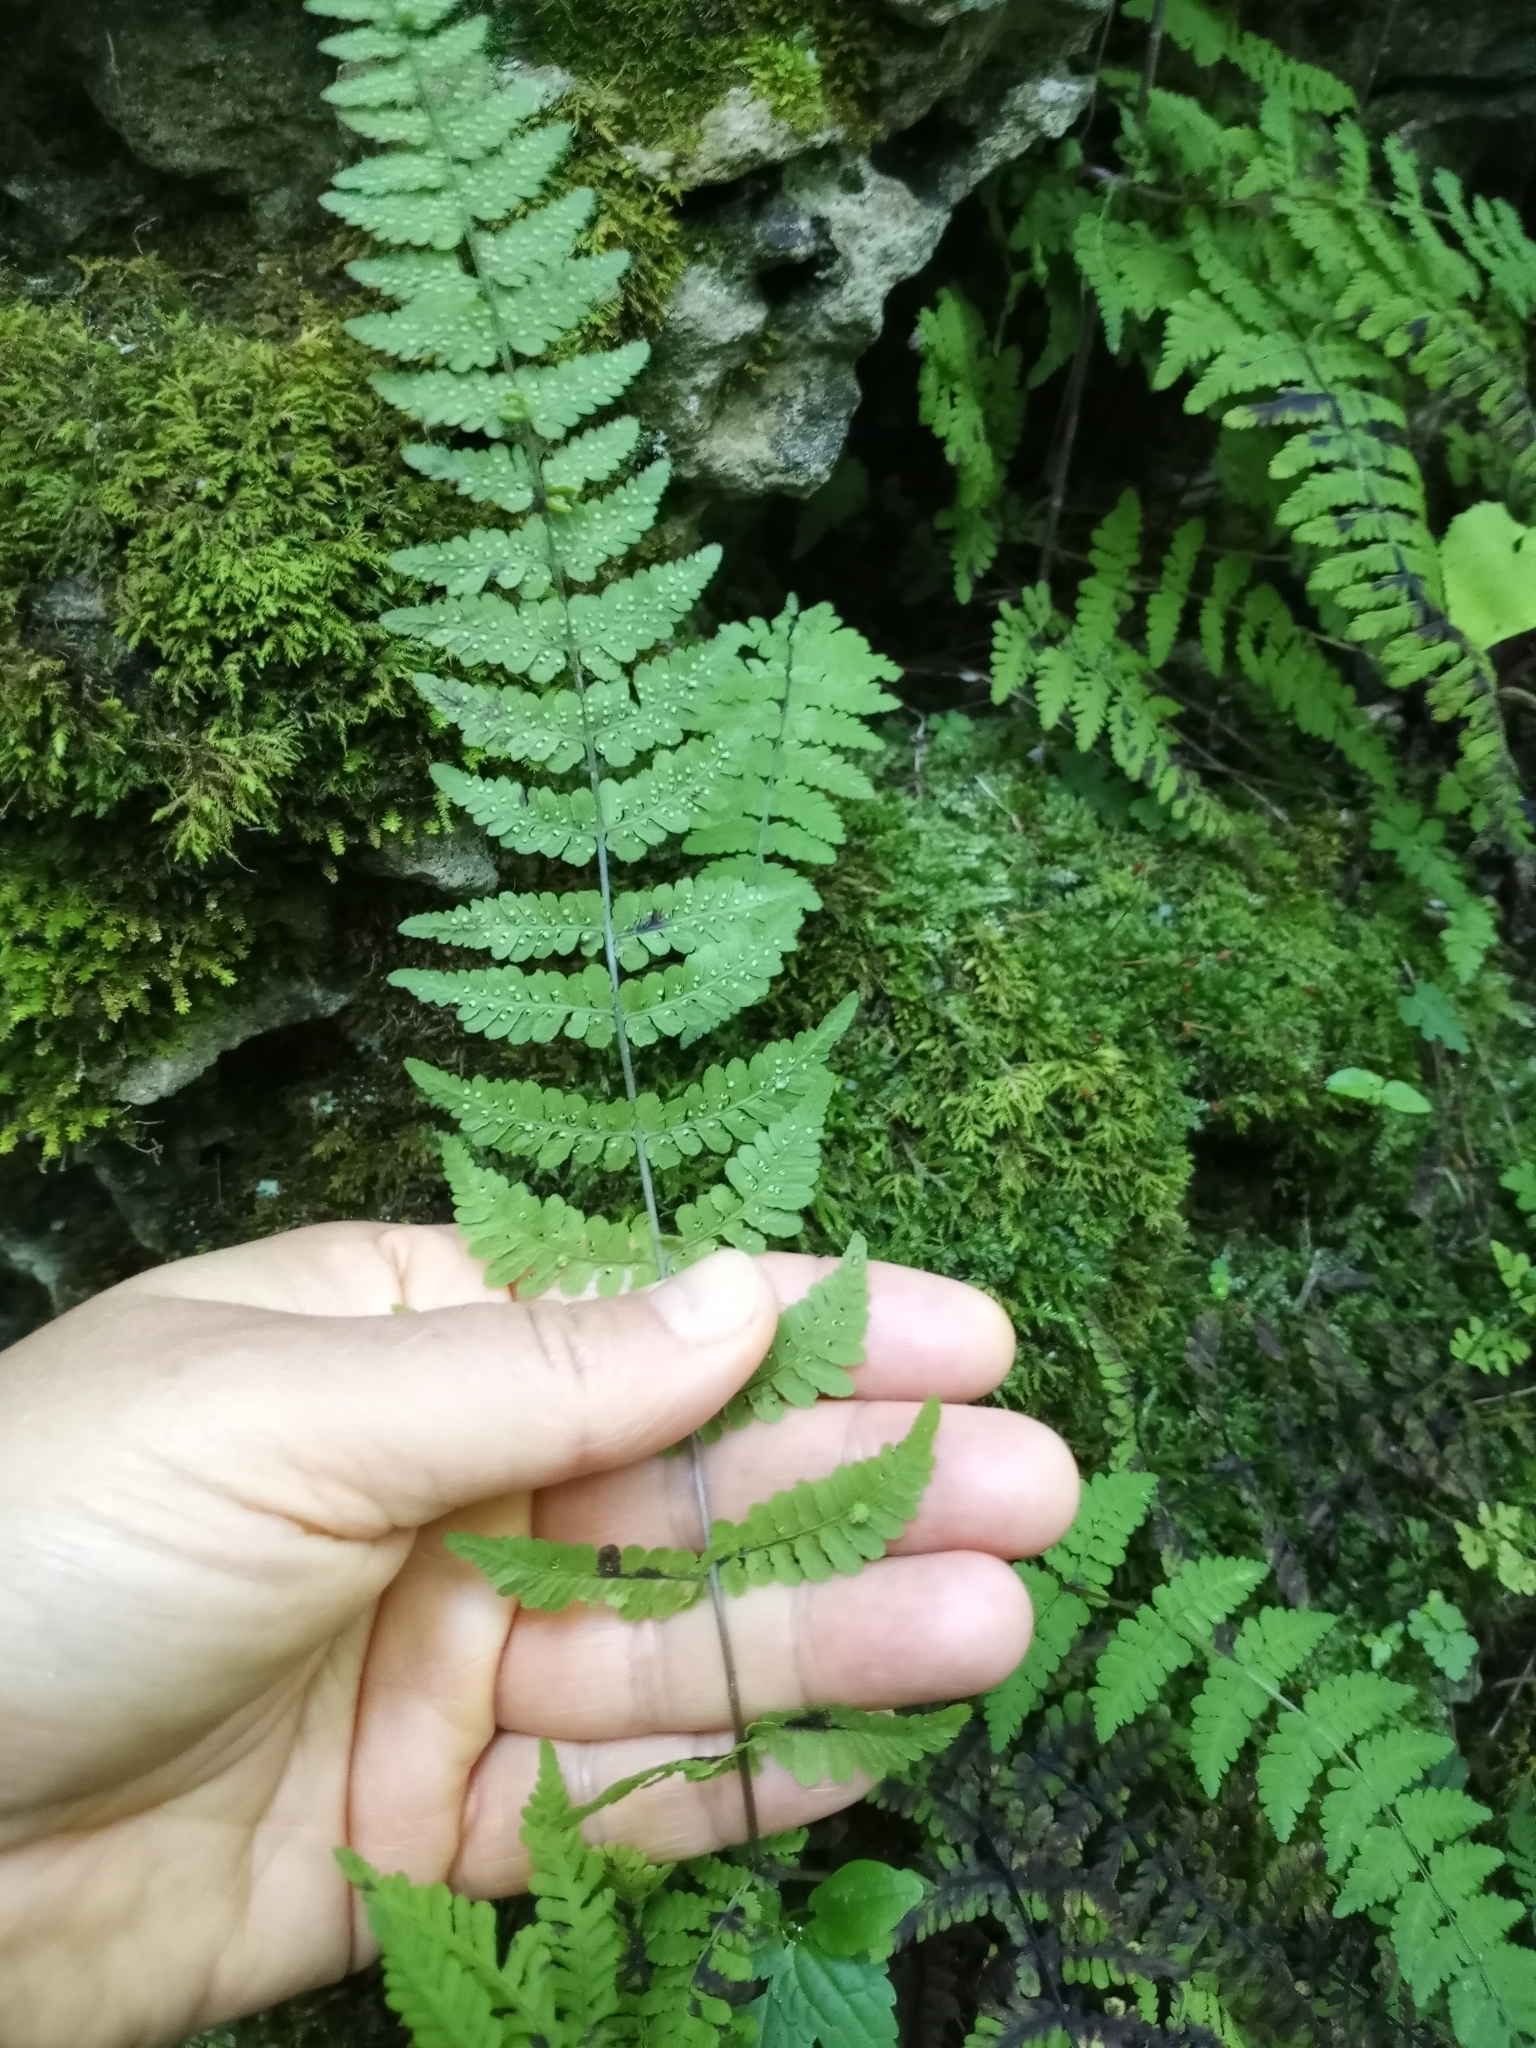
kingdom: Plantae
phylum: Tracheophyta
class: Polypodiopsida
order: Polypodiales
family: Cystopteridaceae
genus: Cystopteris
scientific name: Cystopteris bulbifera
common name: Bulblet bladder fern
